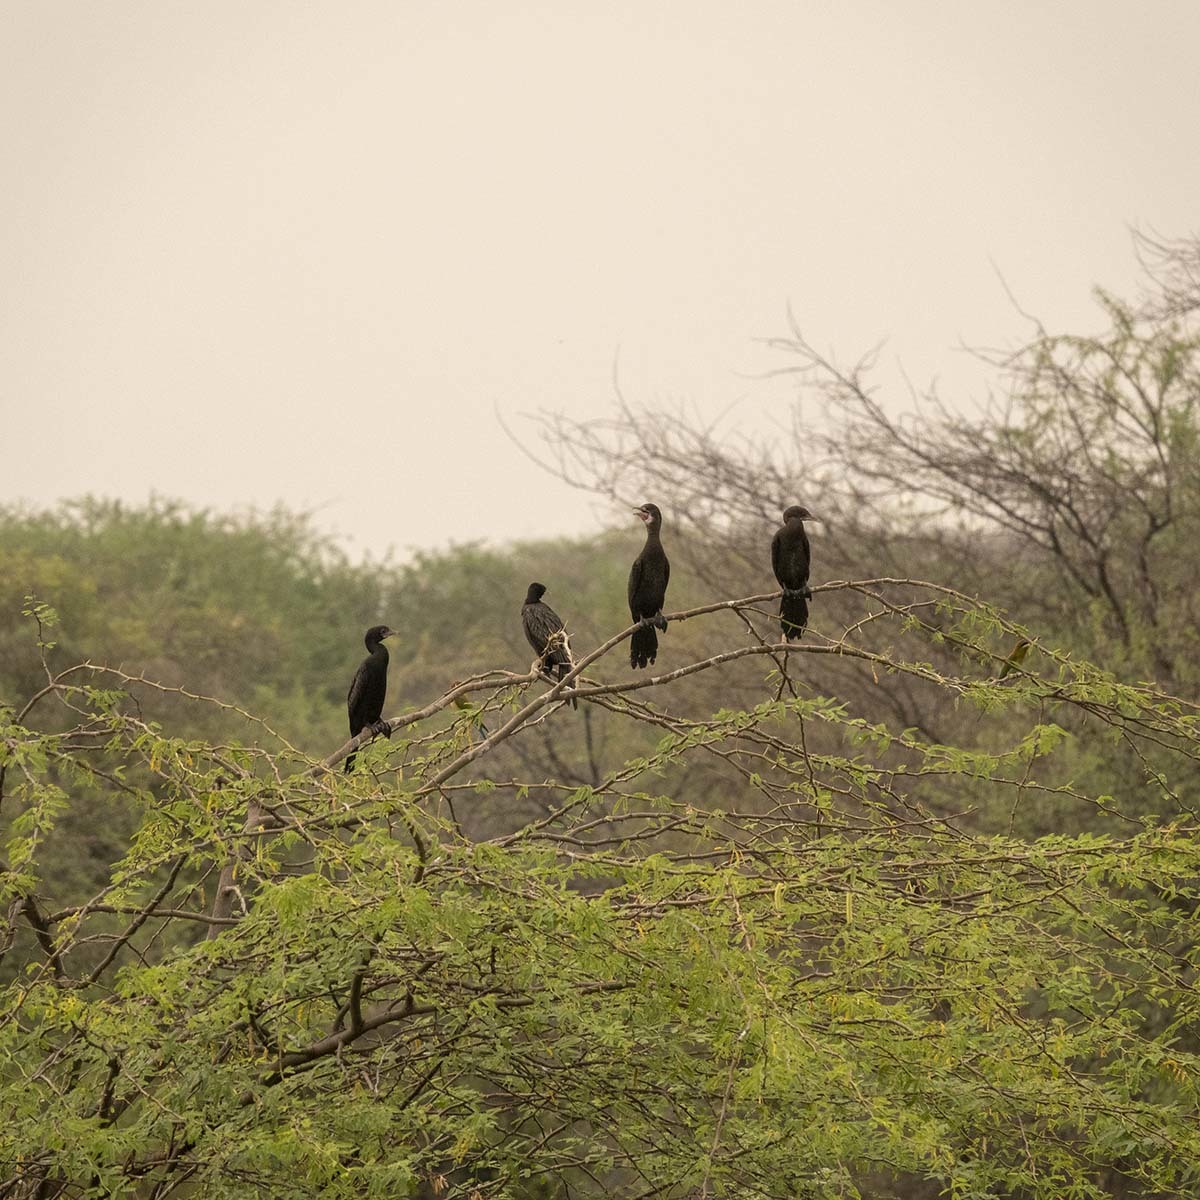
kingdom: Animalia
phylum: Chordata
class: Aves
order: Suliformes
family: Phalacrocoracidae
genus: Microcarbo
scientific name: Microcarbo niger
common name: Little cormorant
